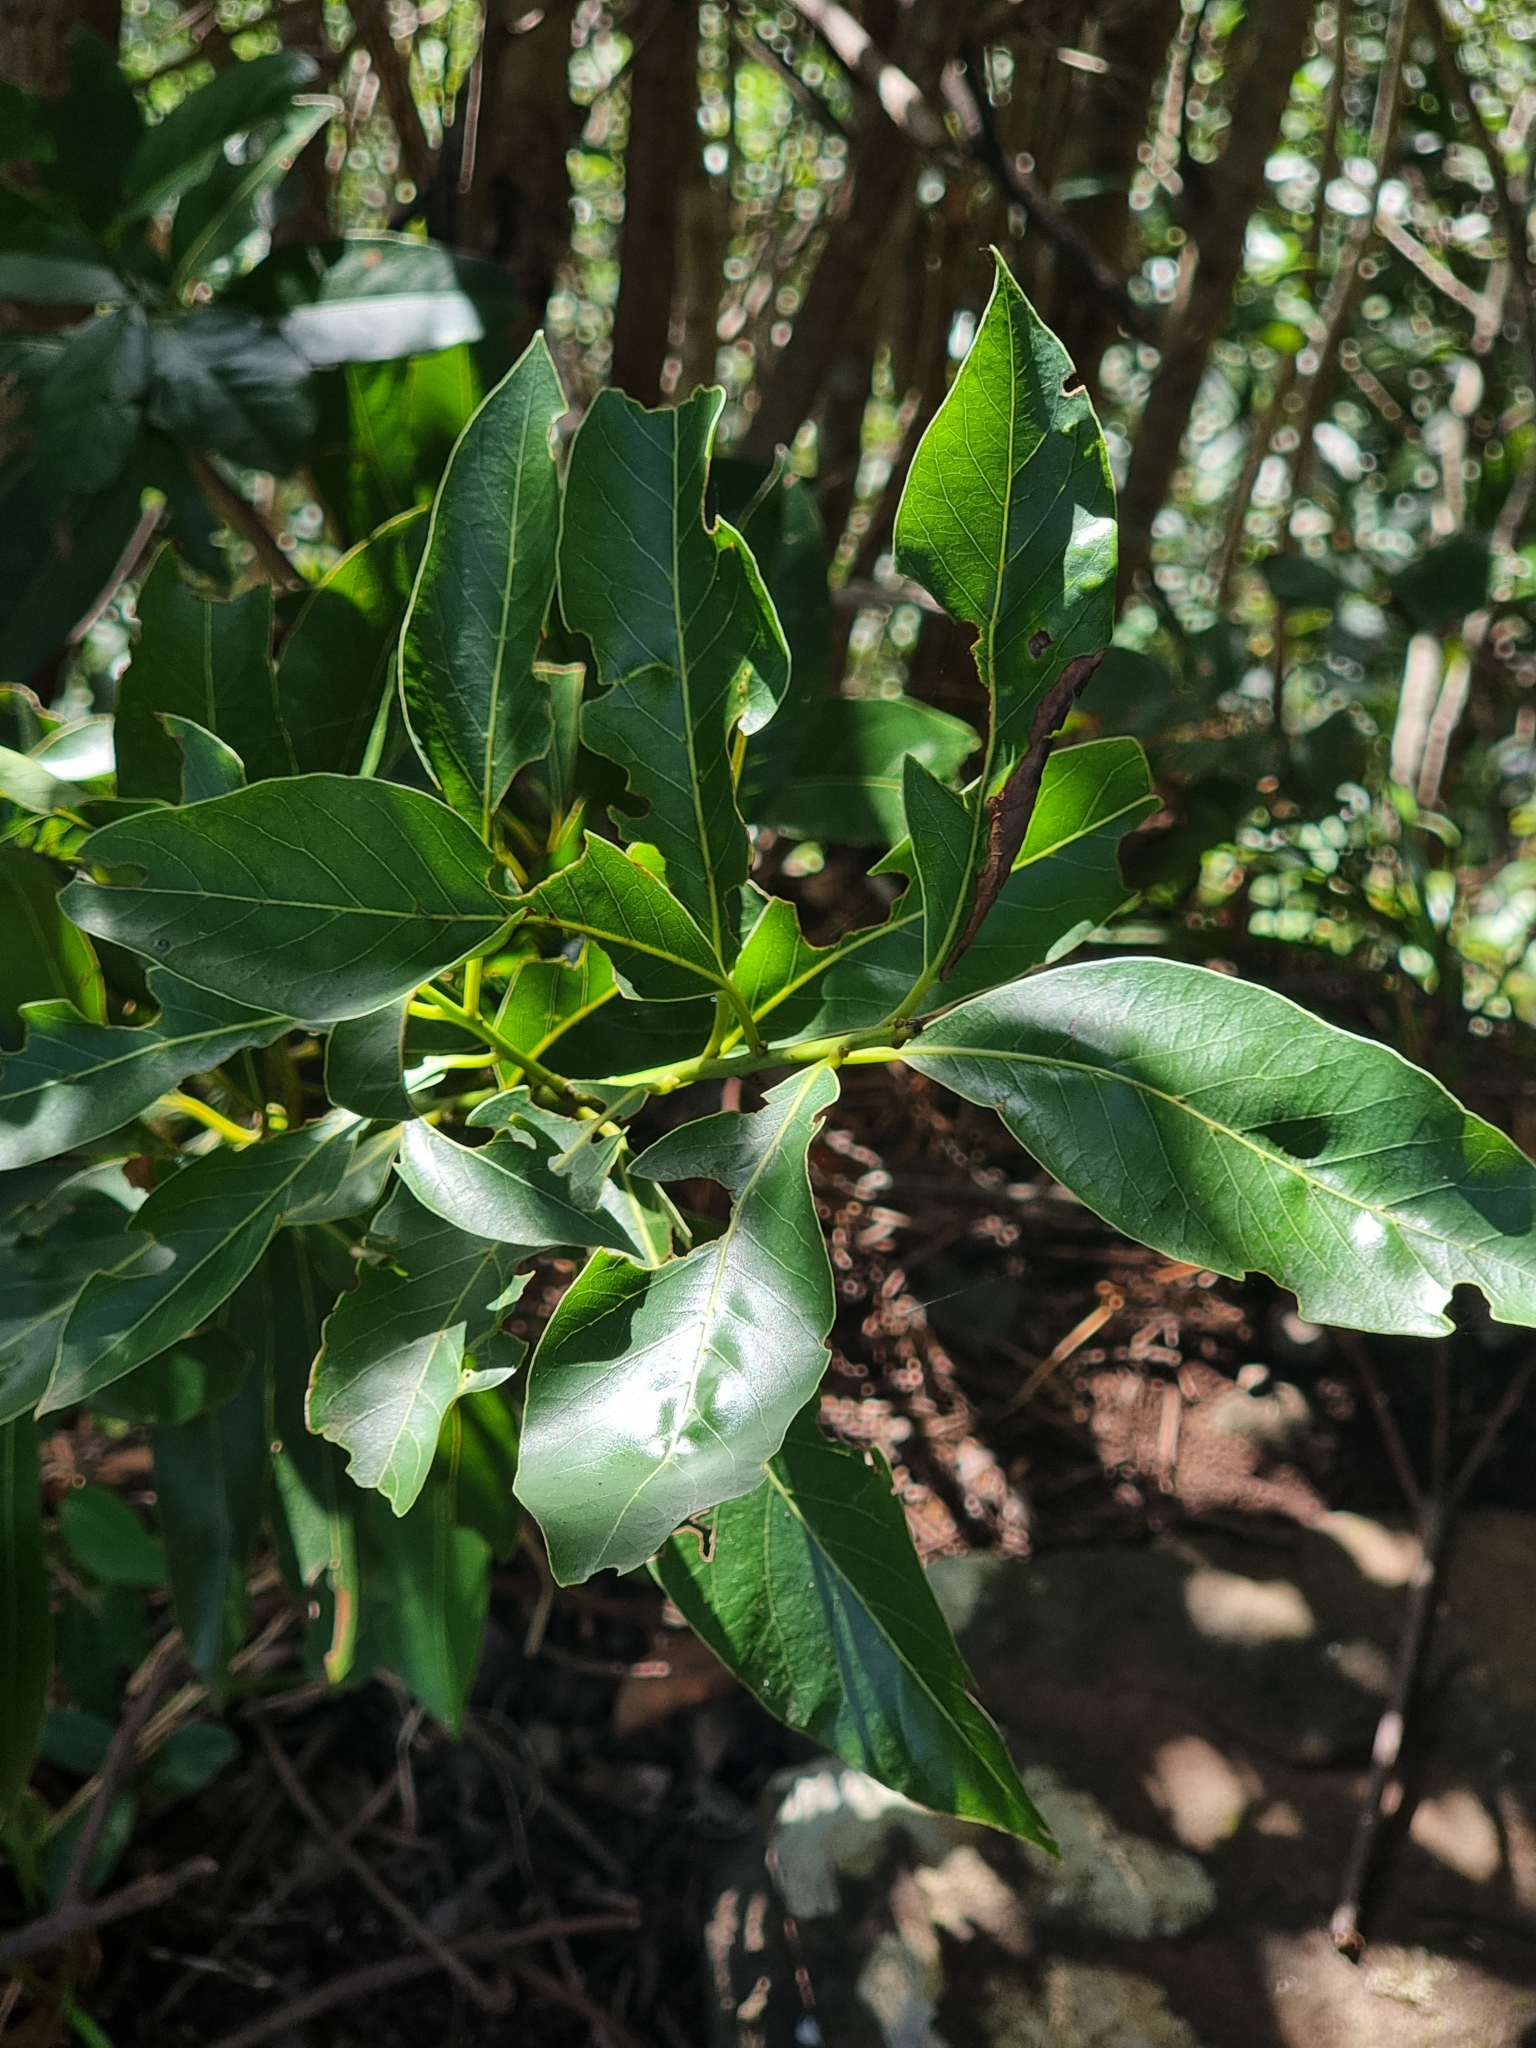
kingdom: Plantae
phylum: Tracheophyta
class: Magnoliopsida
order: Laurales
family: Lauraceae
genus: Laurus
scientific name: Laurus novocanariensis
